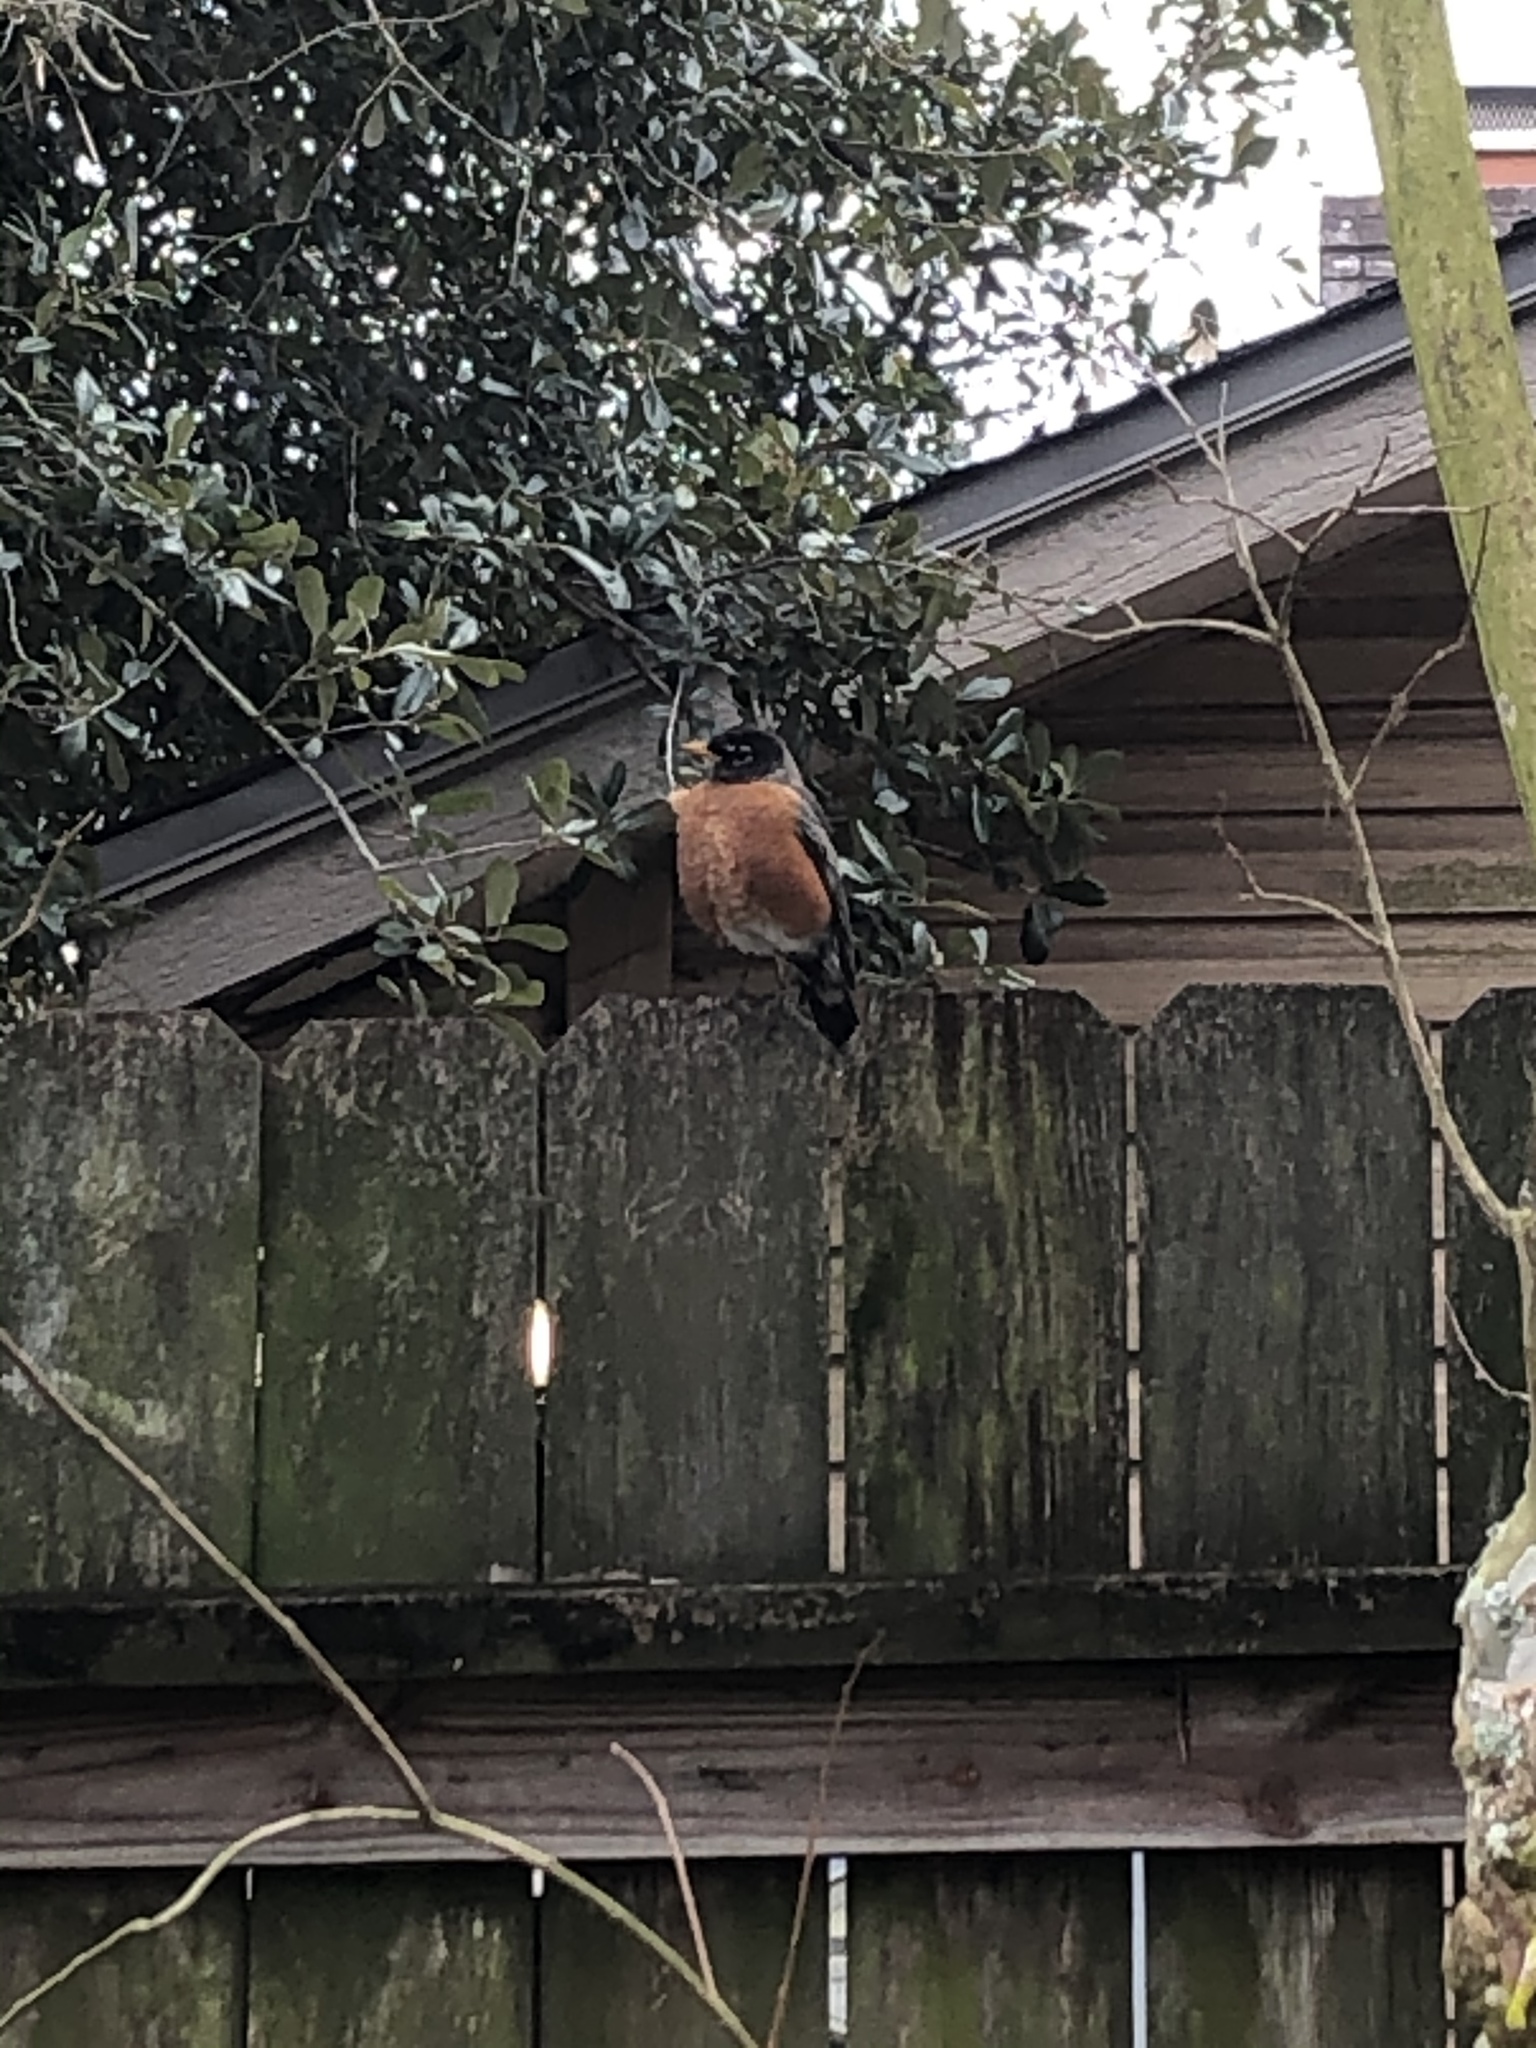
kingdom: Animalia
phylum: Chordata
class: Aves
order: Passeriformes
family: Turdidae
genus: Turdus
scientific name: Turdus migratorius
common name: American robin
